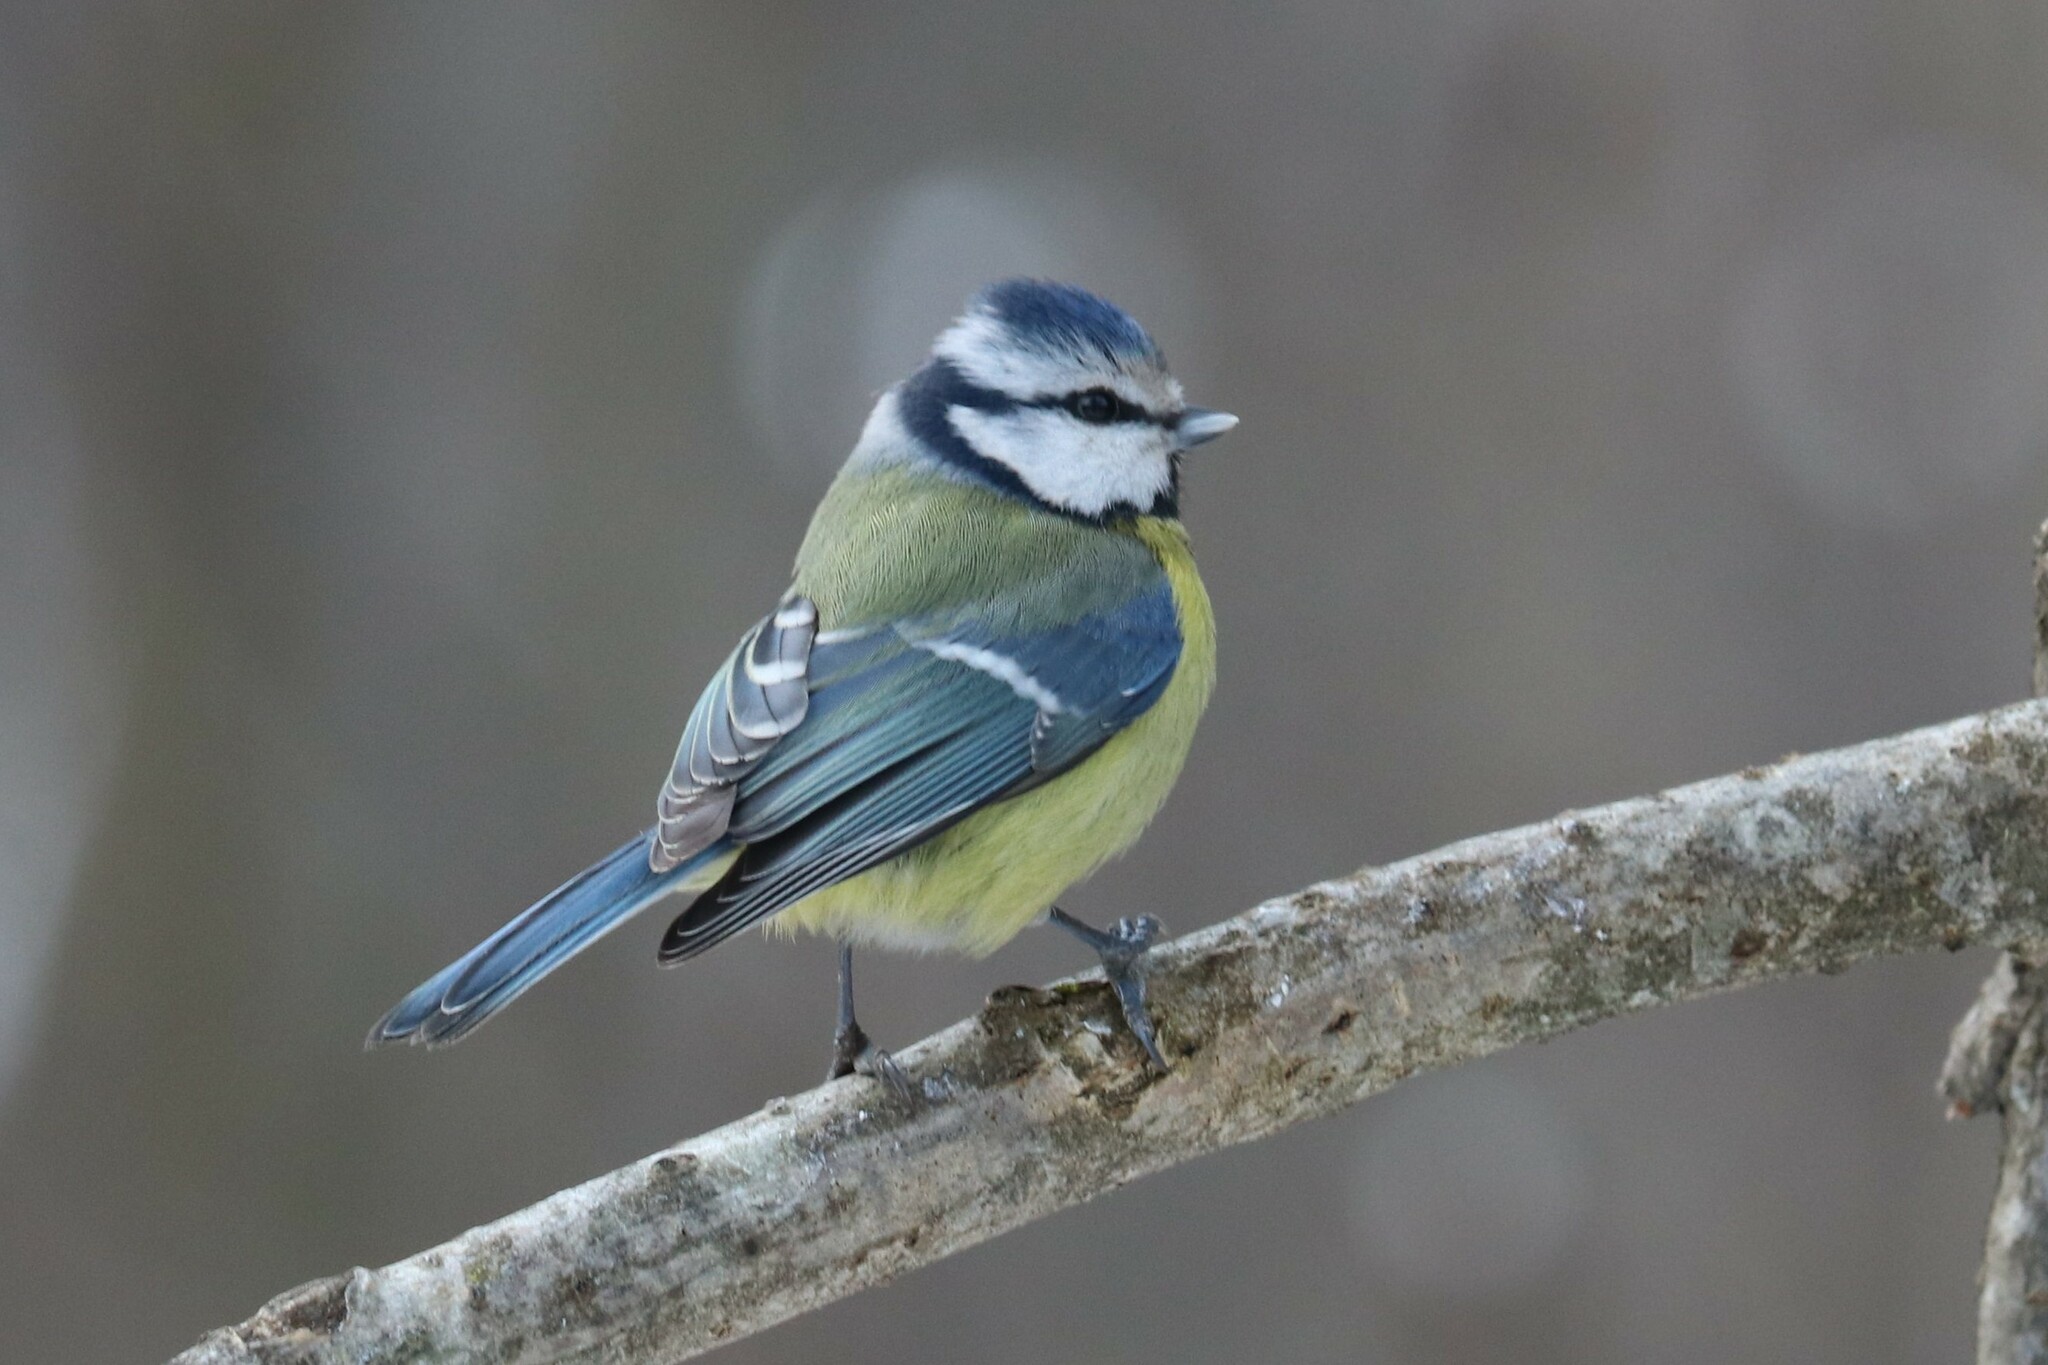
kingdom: Animalia
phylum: Chordata
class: Aves
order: Passeriformes
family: Paridae
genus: Cyanistes
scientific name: Cyanistes caeruleus
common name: Eurasian blue tit
